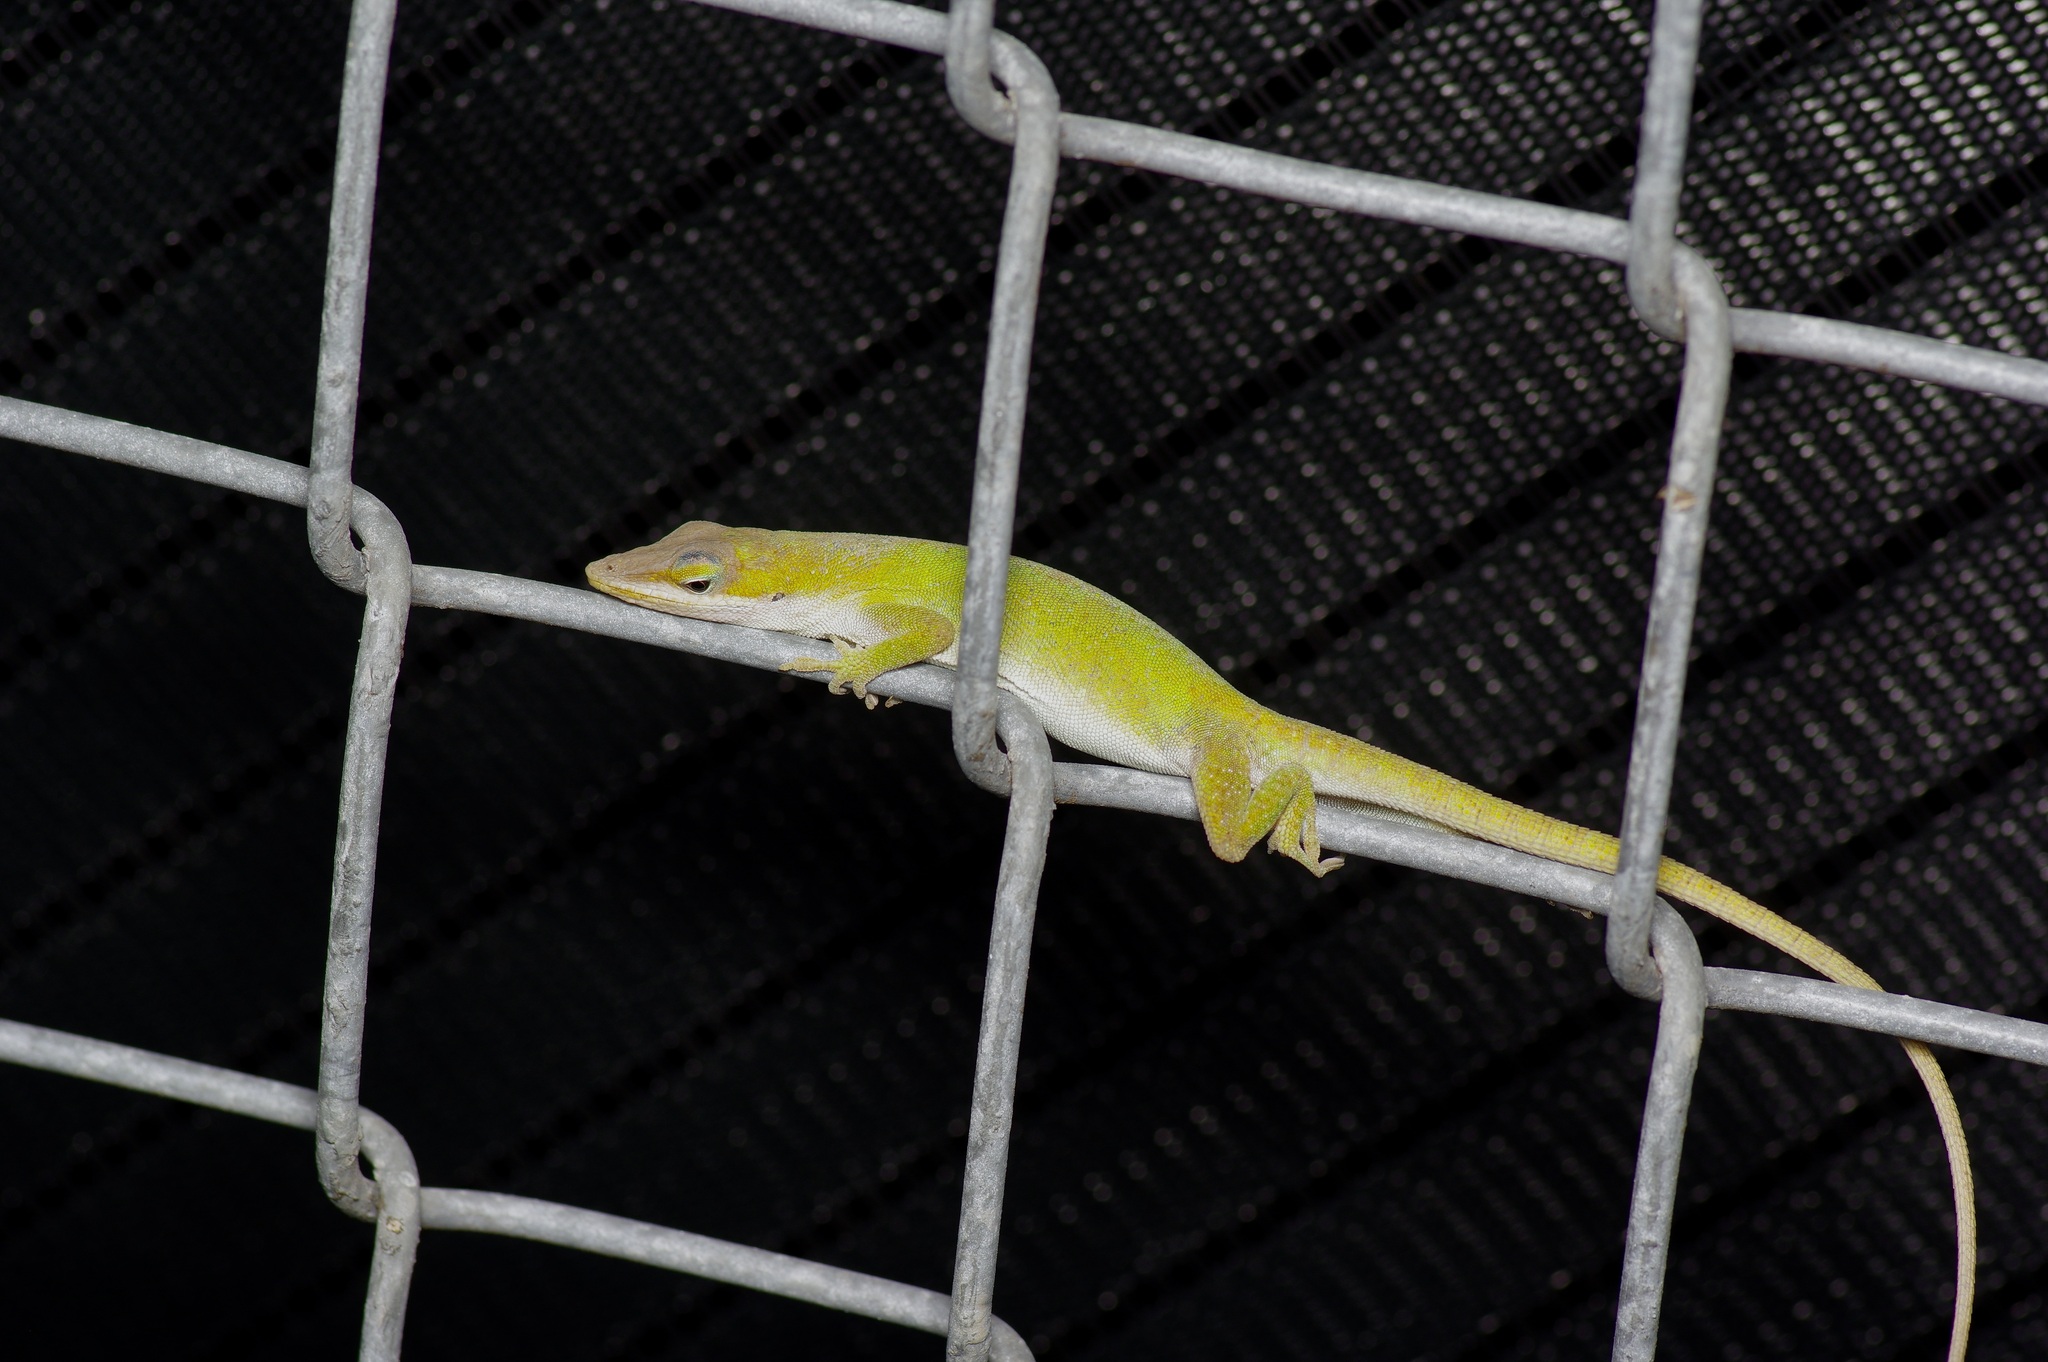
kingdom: Animalia
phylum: Chordata
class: Squamata
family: Dactyloidae
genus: Anolis
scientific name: Anolis carolinensis
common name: Green anole
